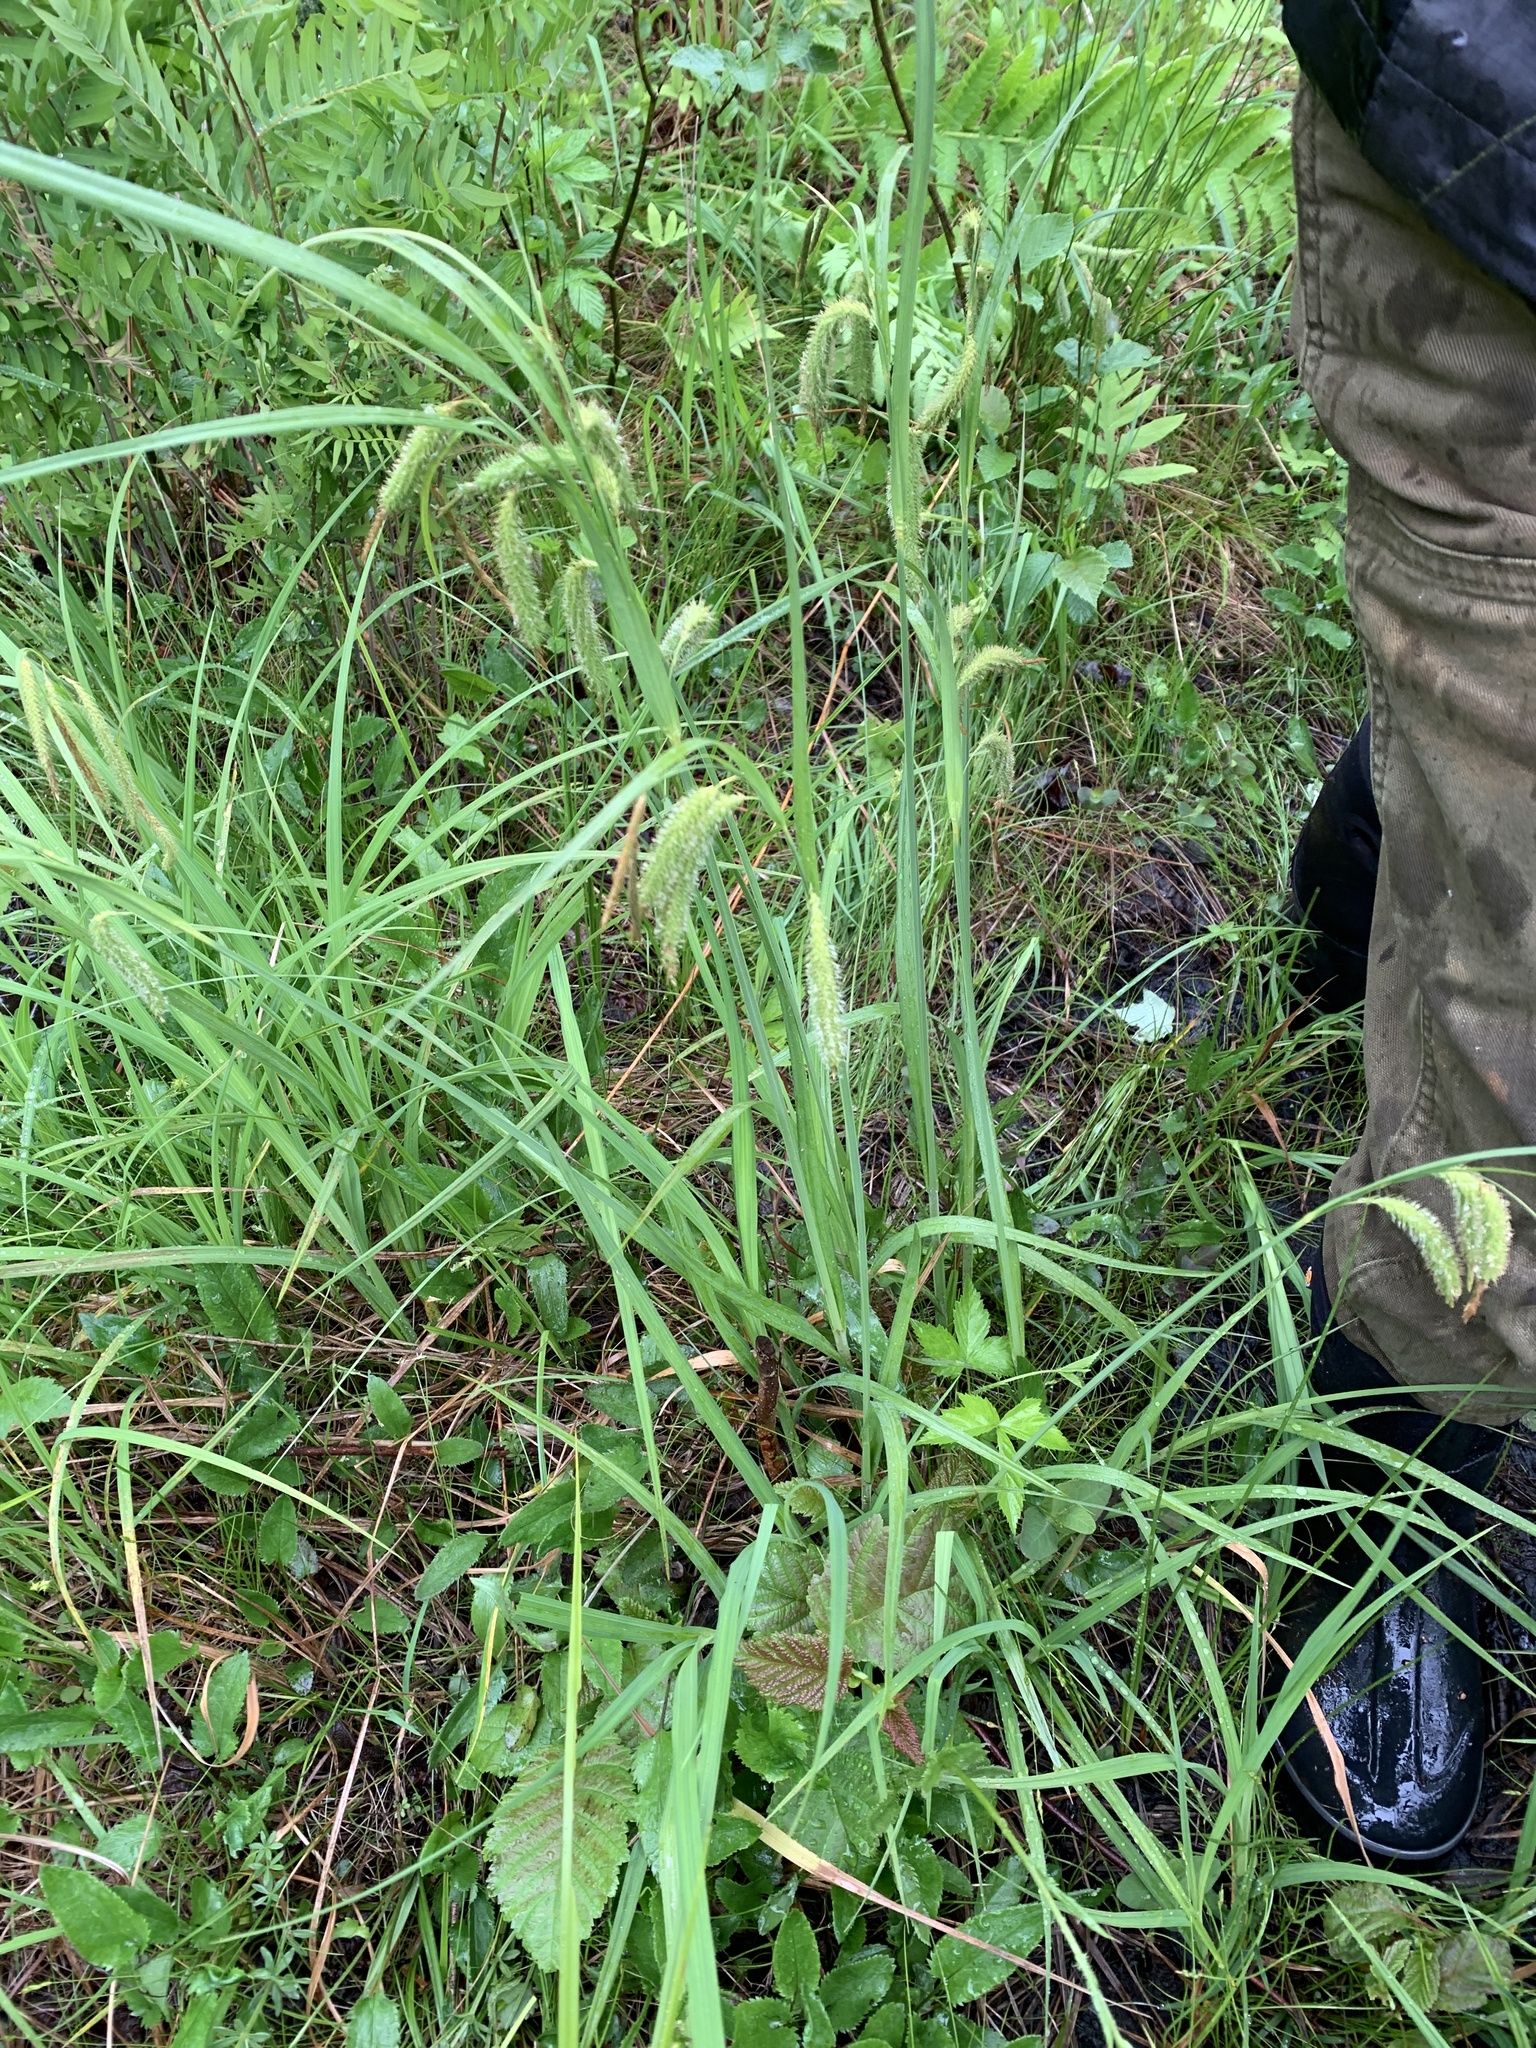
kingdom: Plantae
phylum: Tracheophyta
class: Liliopsida
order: Poales
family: Cyperaceae
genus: Carex
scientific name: Carex gynandra
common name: Nodding sedge
